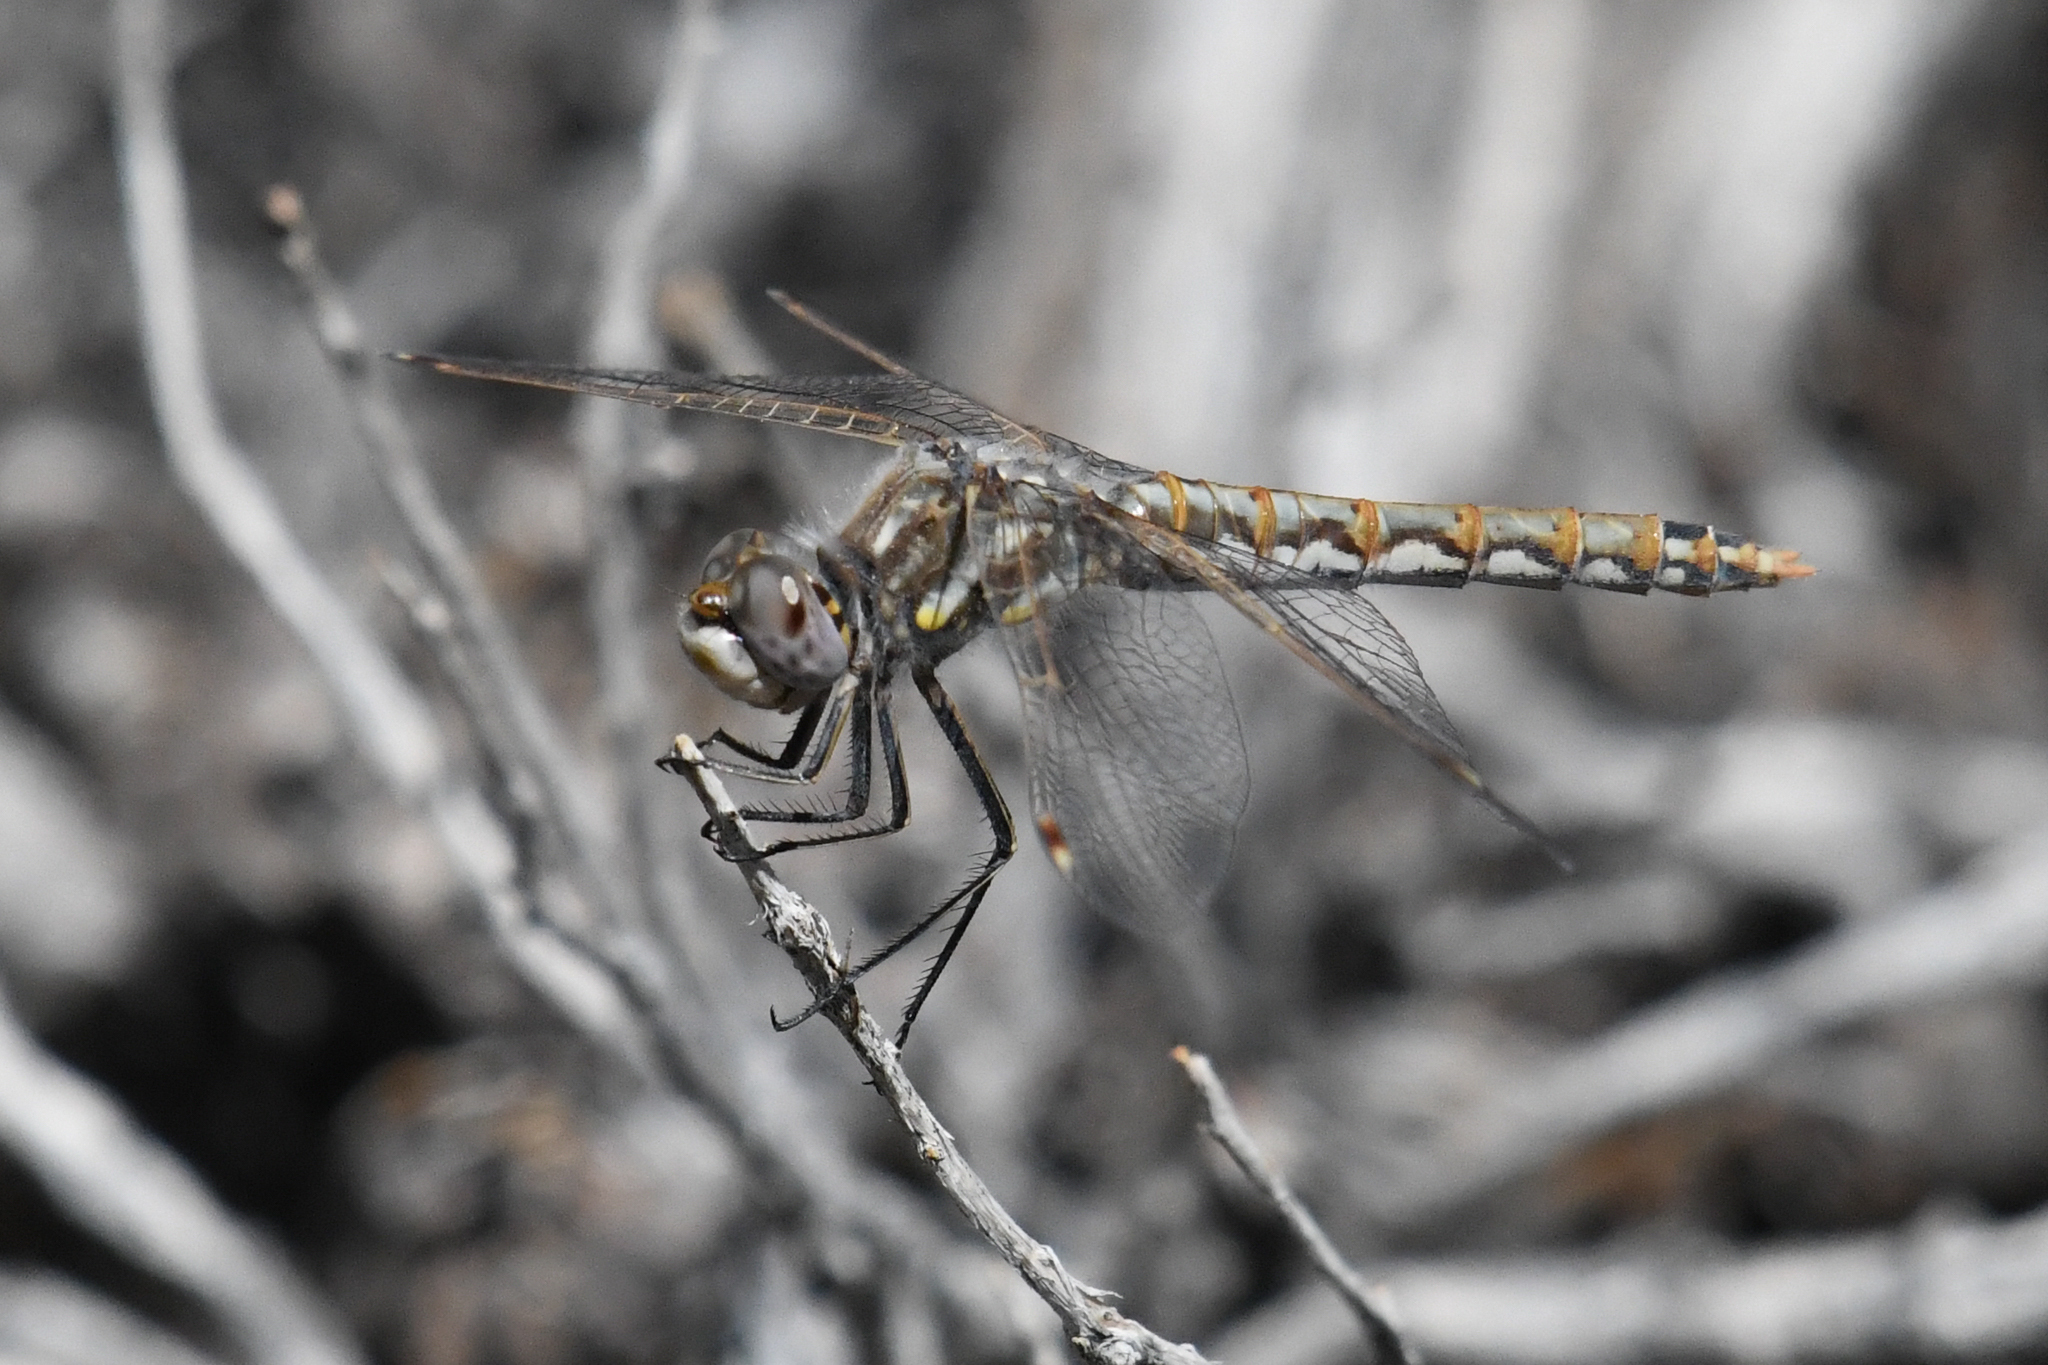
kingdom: Animalia
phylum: Arthropoda
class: Insecta
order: Odonata
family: Libellulidae
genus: Sympetrum
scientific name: Sympetrum corruptum
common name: Variegated meadowhawk
